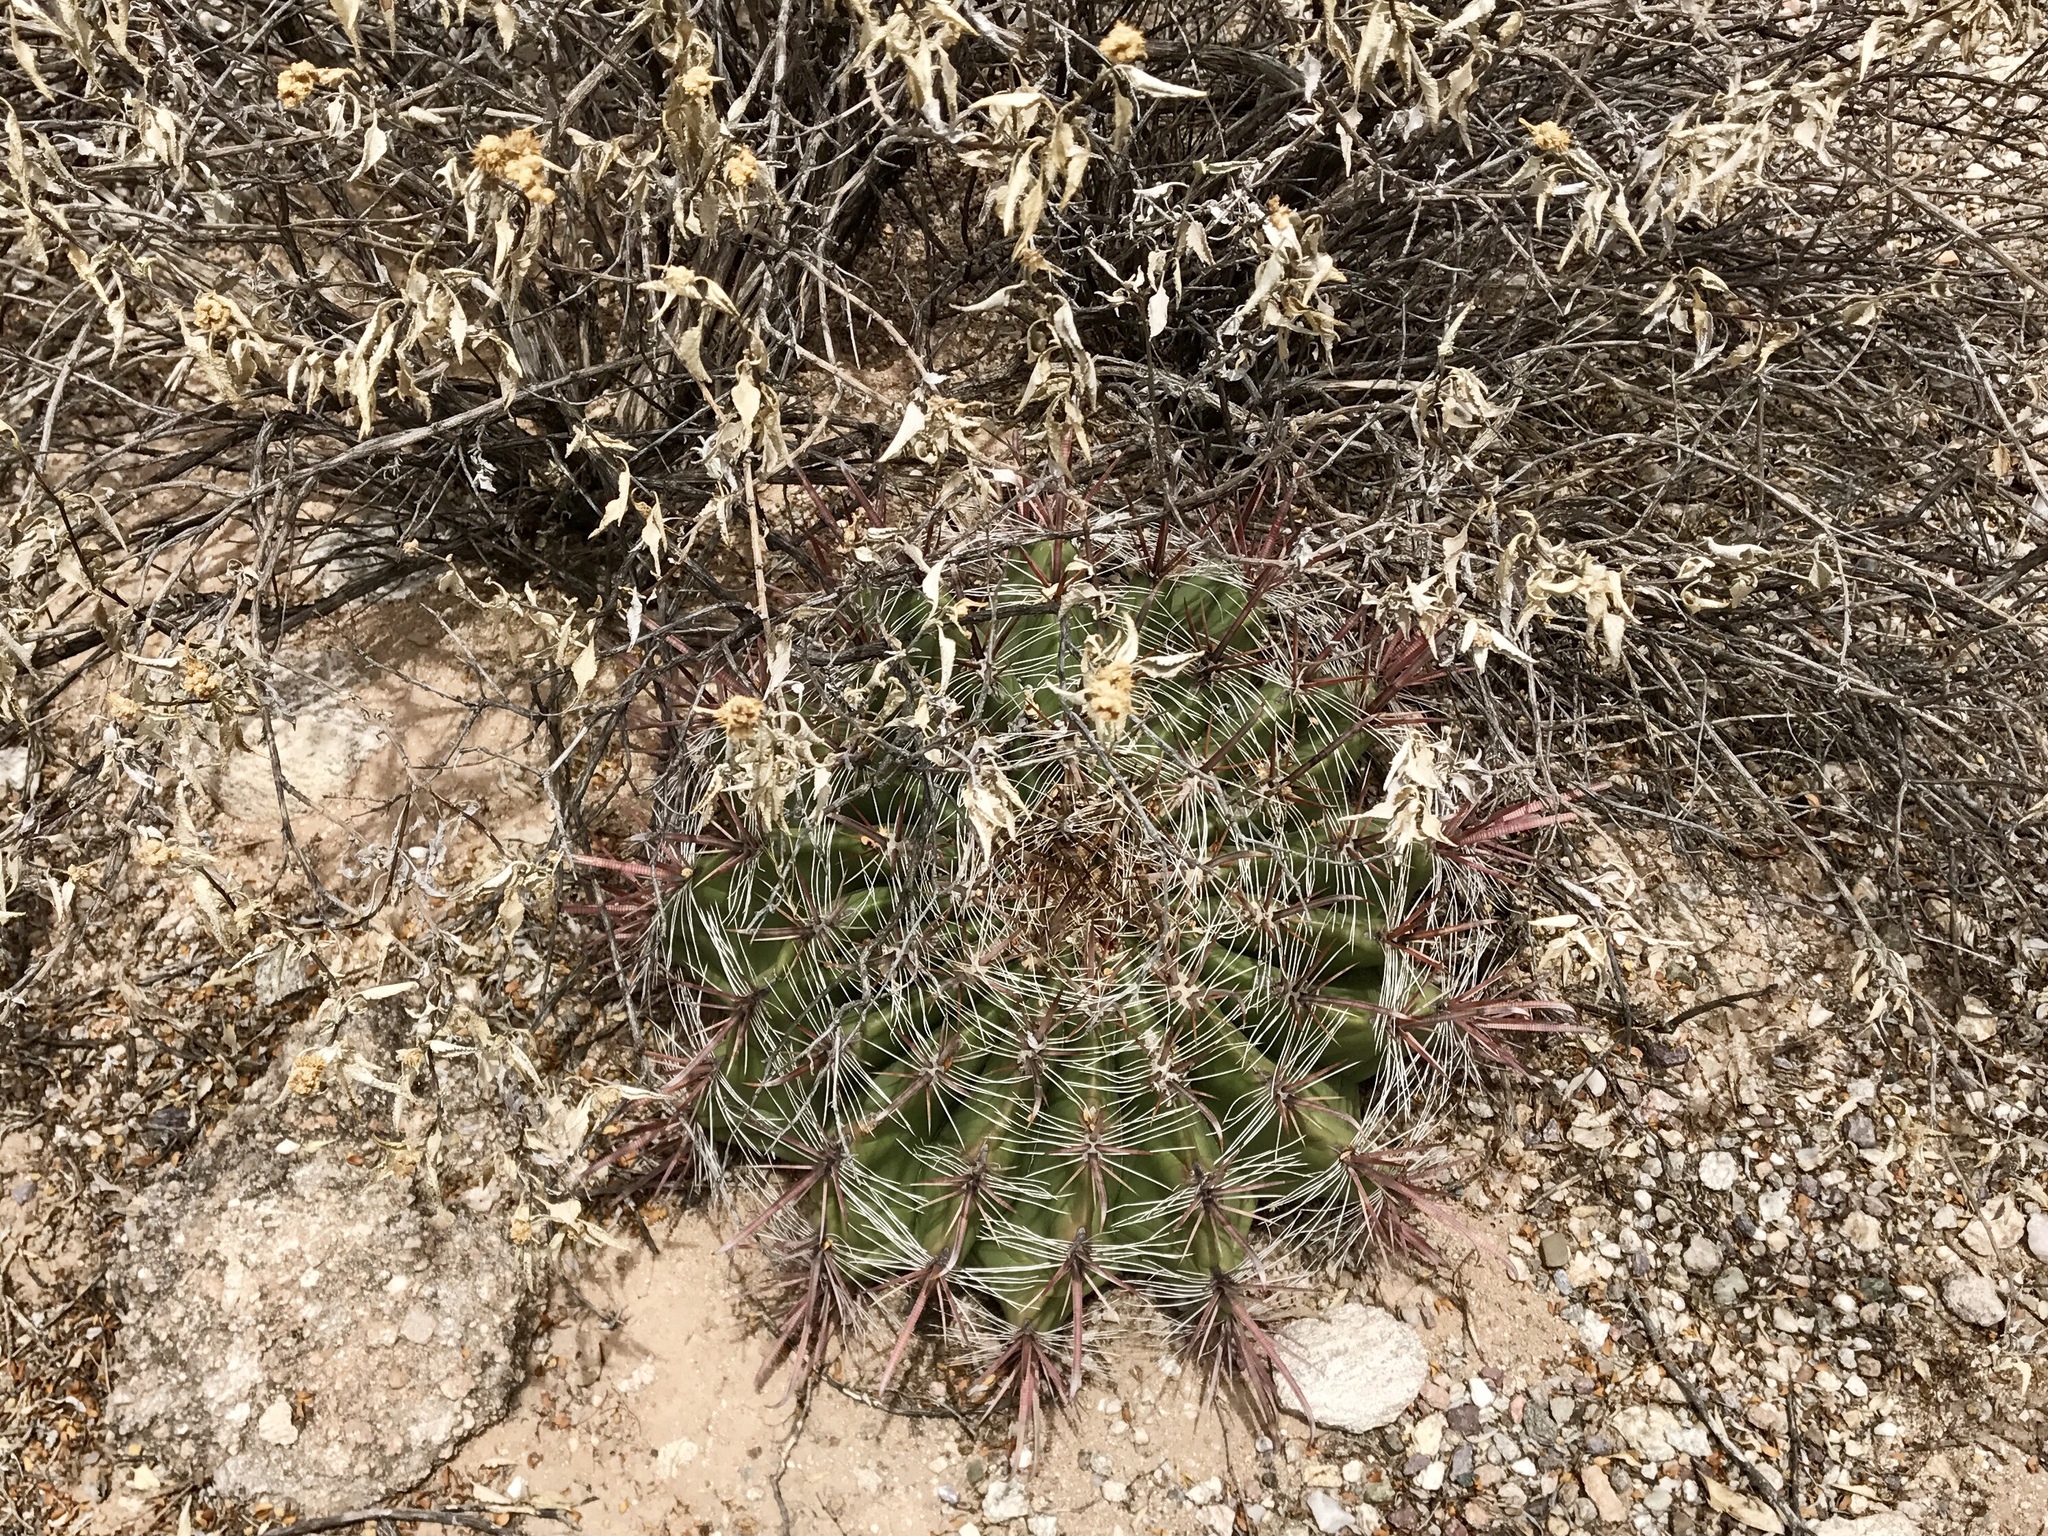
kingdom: Plantae
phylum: Tracheophyta
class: Magnoliopsida
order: Caryophyllales
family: Cactaceae
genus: Ferocactus
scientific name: Ferocactus wislizeni
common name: Candy barrel cactus
